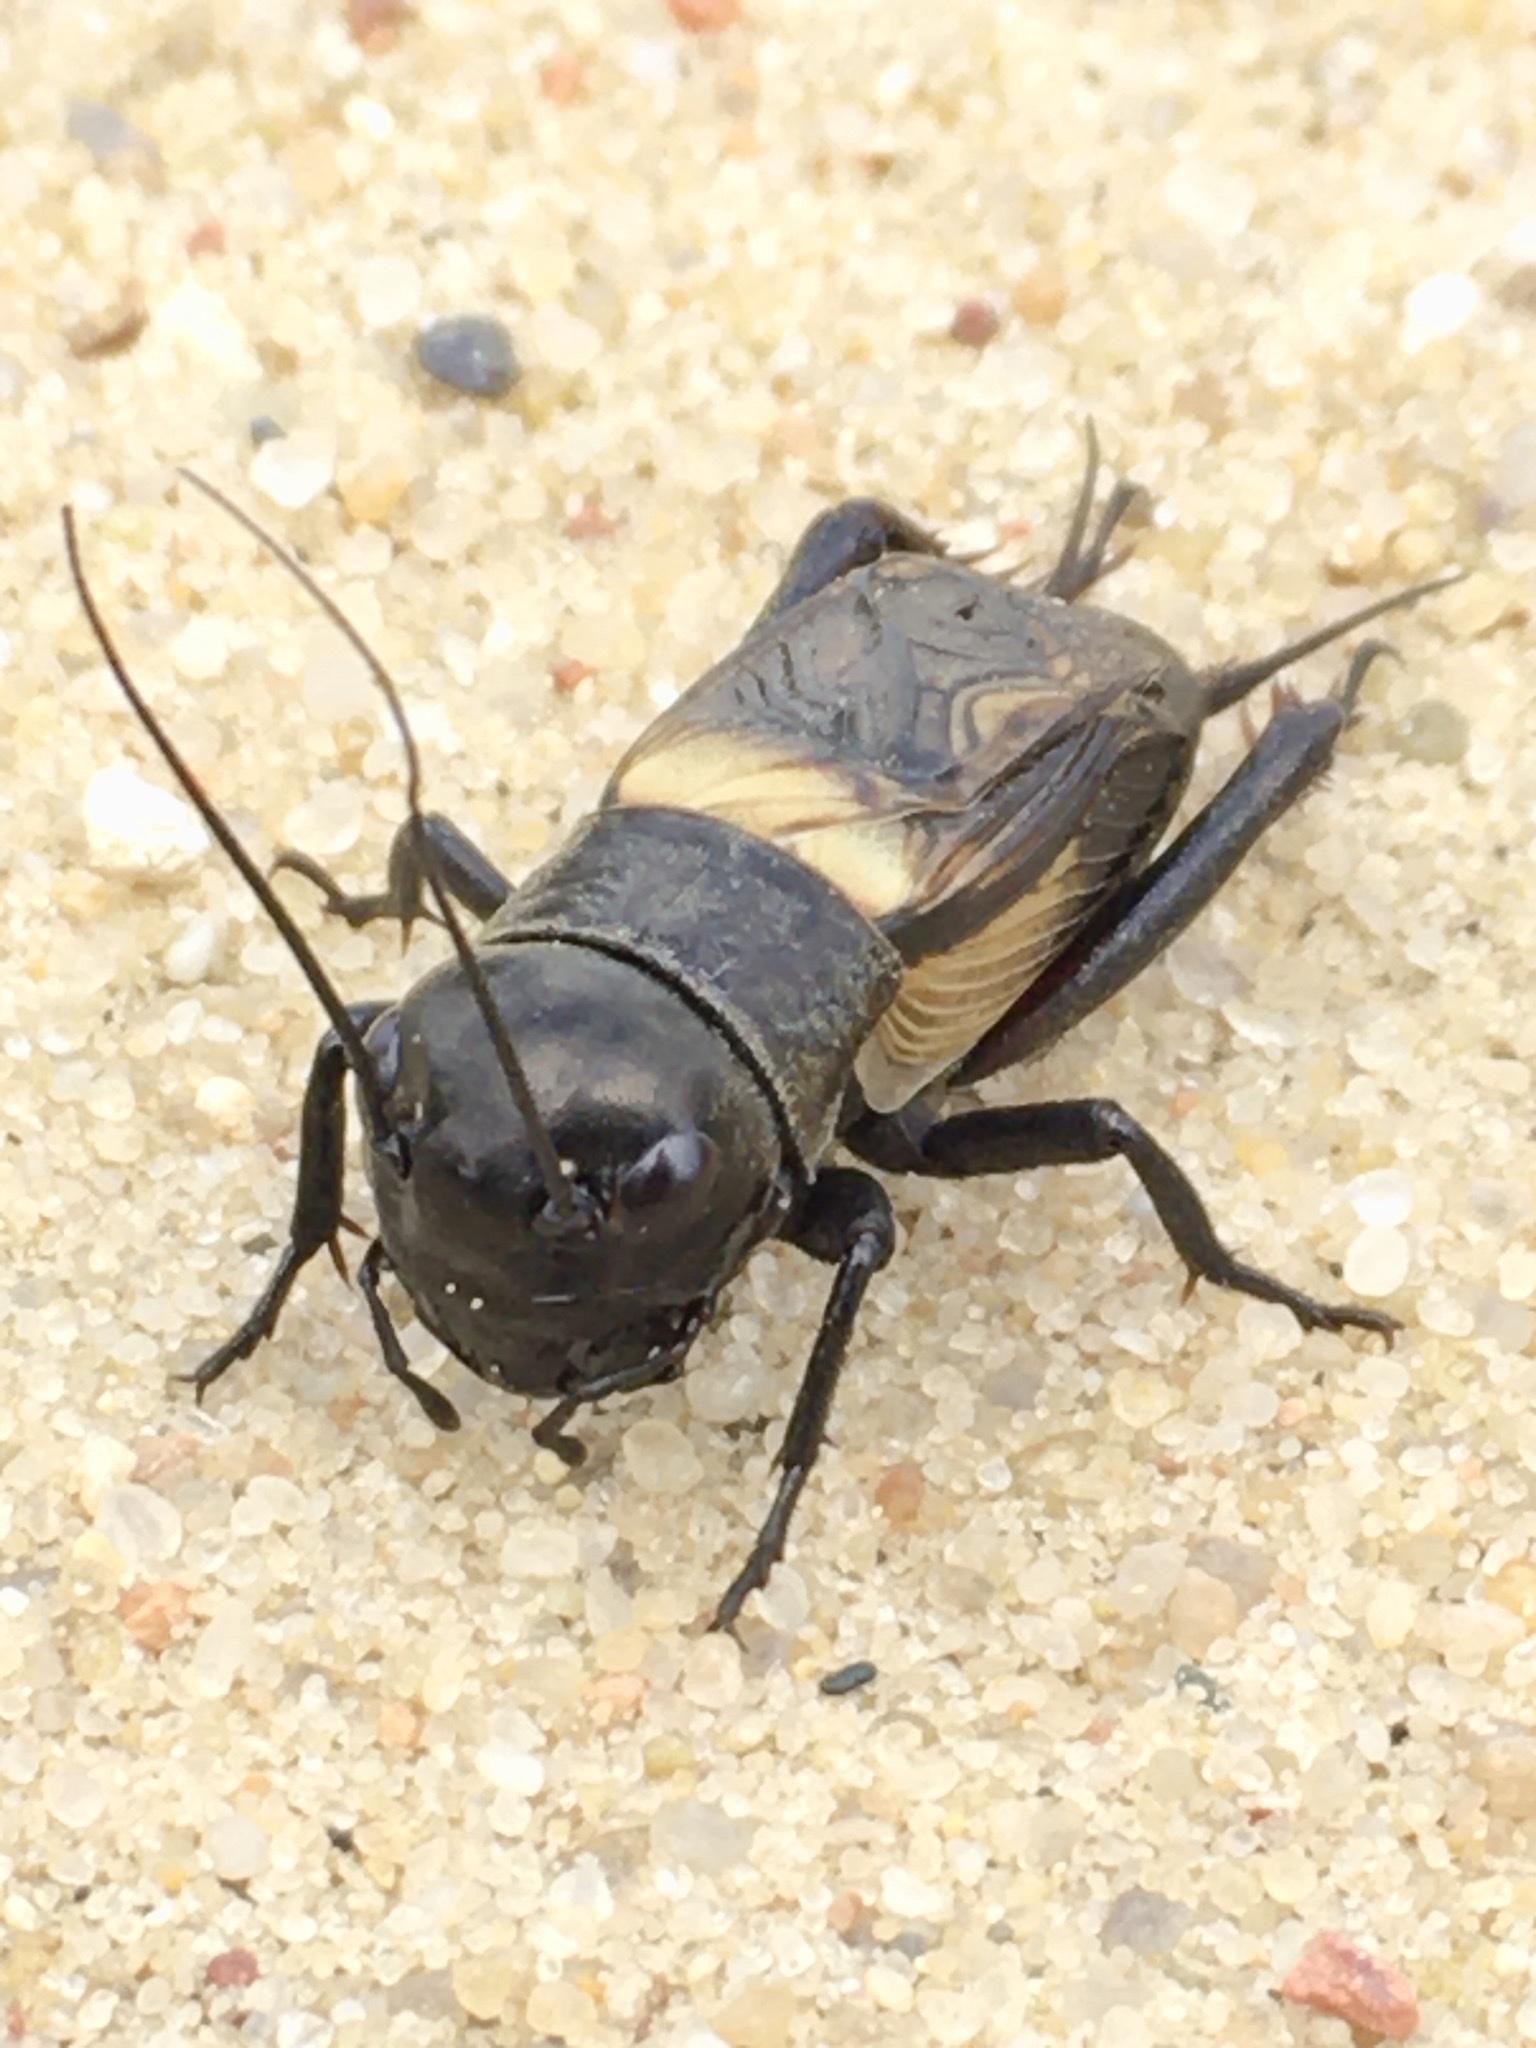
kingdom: Animalia
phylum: Arthropoda
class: Insecta
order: Orthoptera
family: Gryllidae
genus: Gryllus
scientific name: Gryllus campestris
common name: Field cricket
